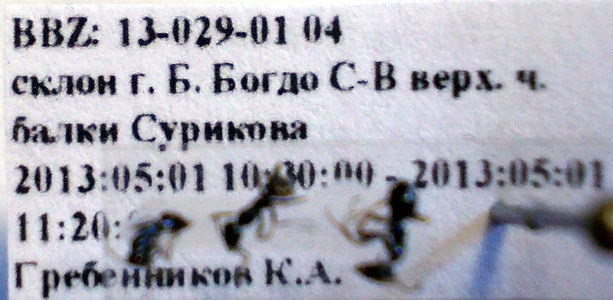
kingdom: Animalia
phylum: Arthropoda
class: Insecta
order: Hymenoptera
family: Formicidae
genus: Proformica
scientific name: Proformica epinotalis
